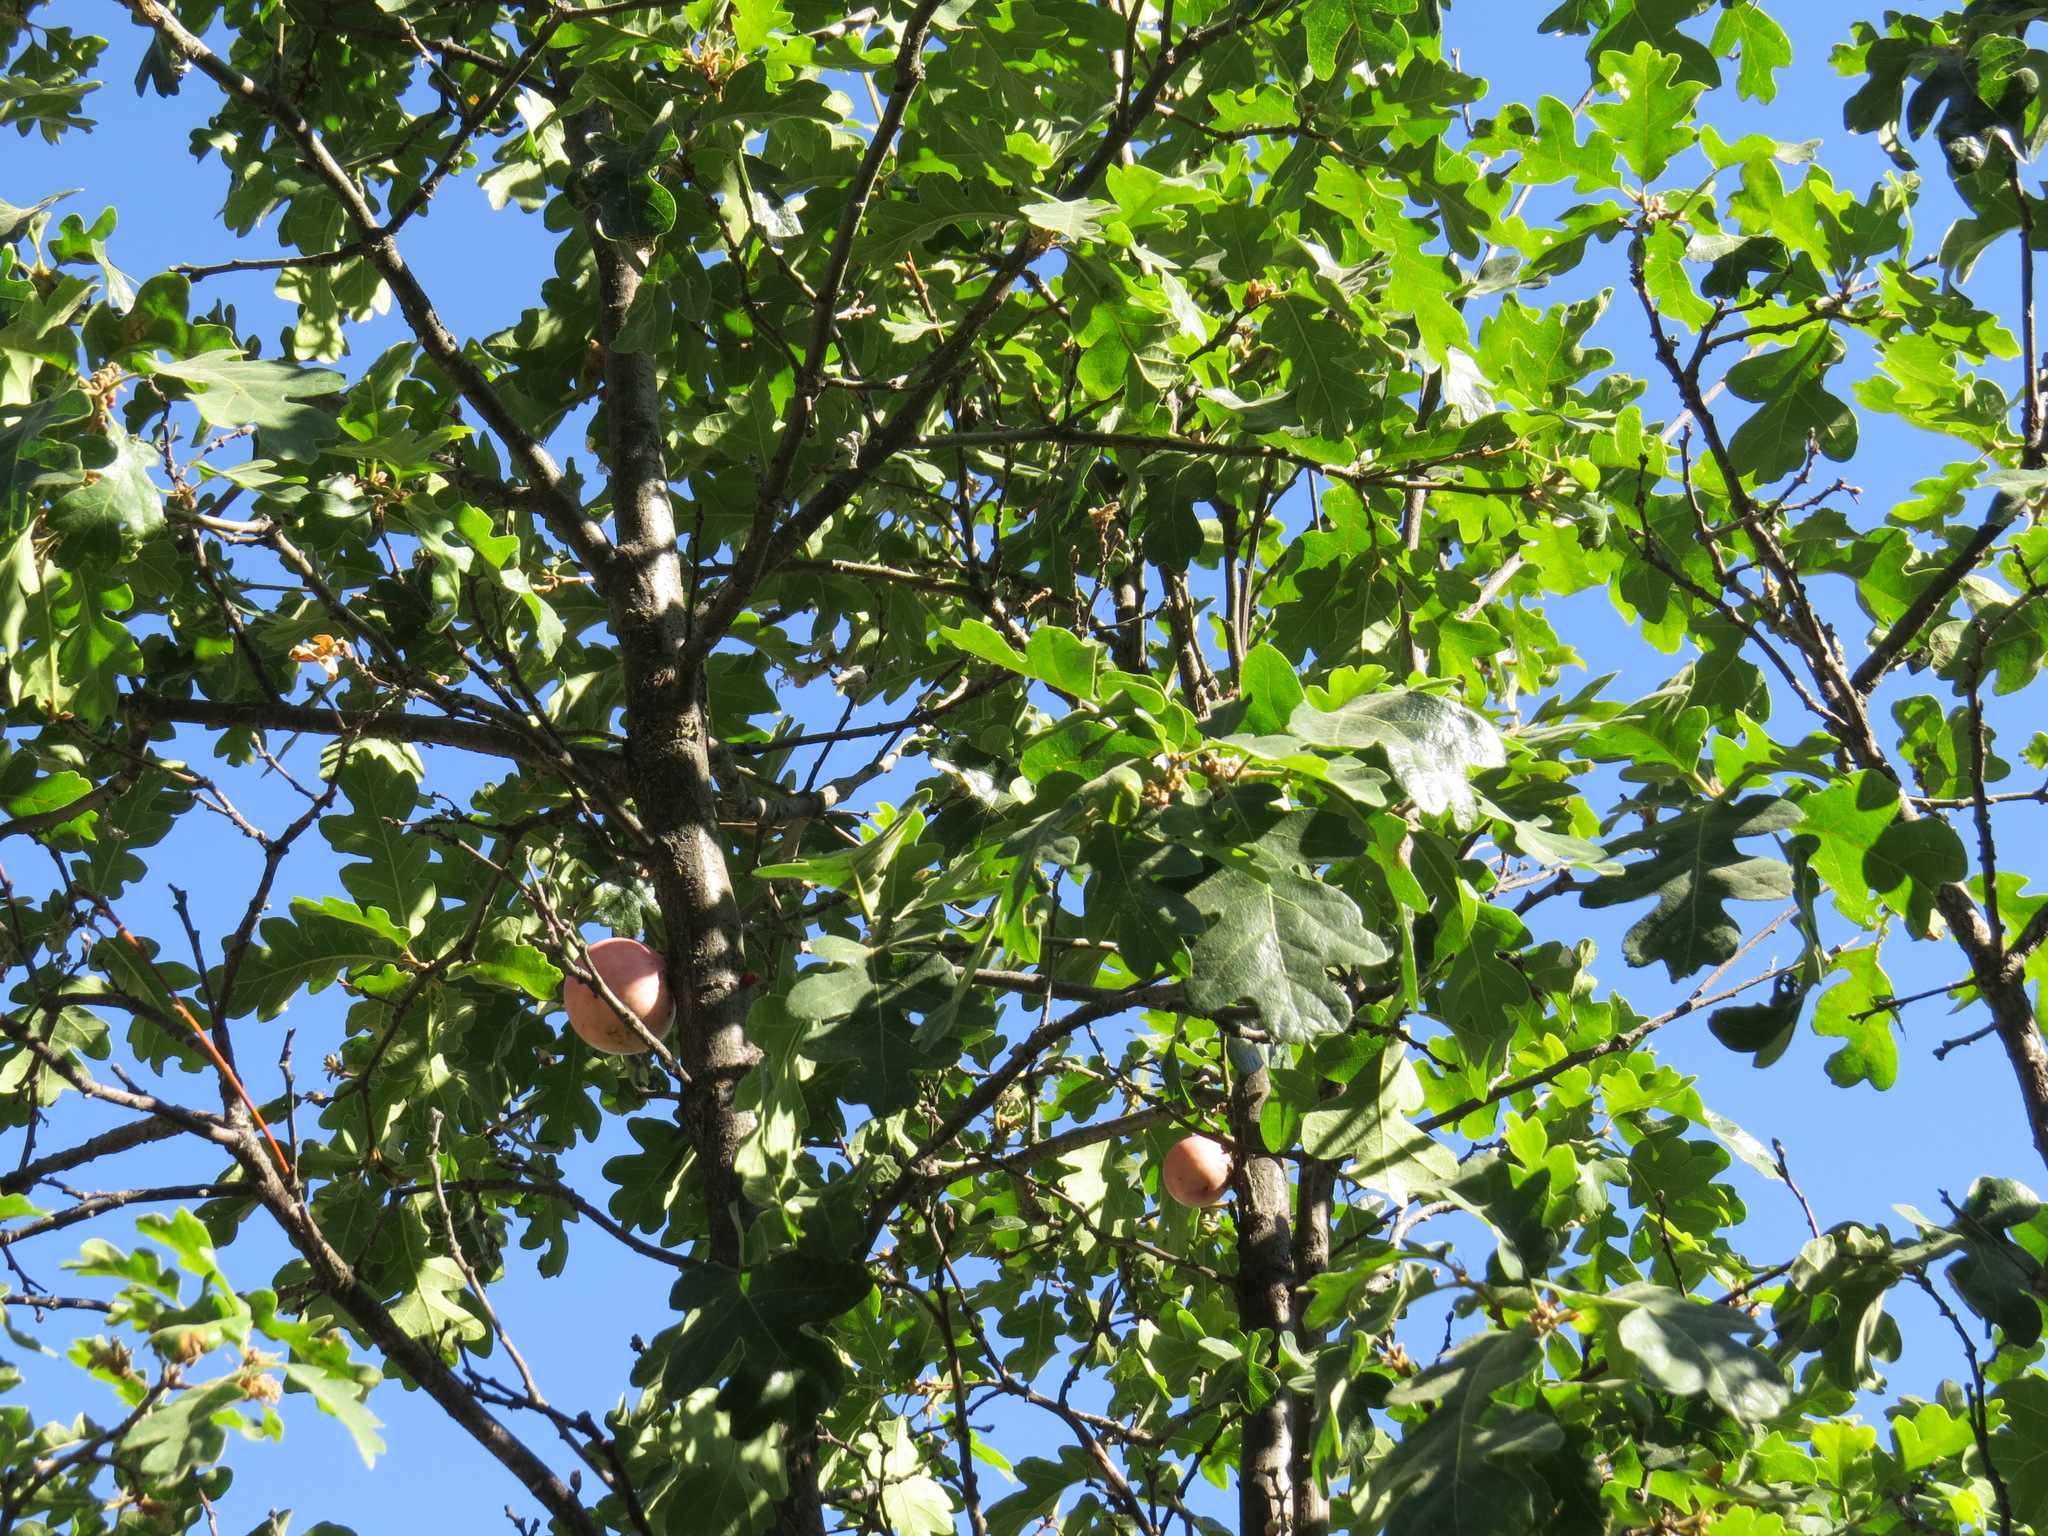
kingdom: Plantae
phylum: Tracheophyta
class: Magnoliopsida
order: Fagales
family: Fagaceae
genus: Quercus
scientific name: Quercus garryana
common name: Garry oak
